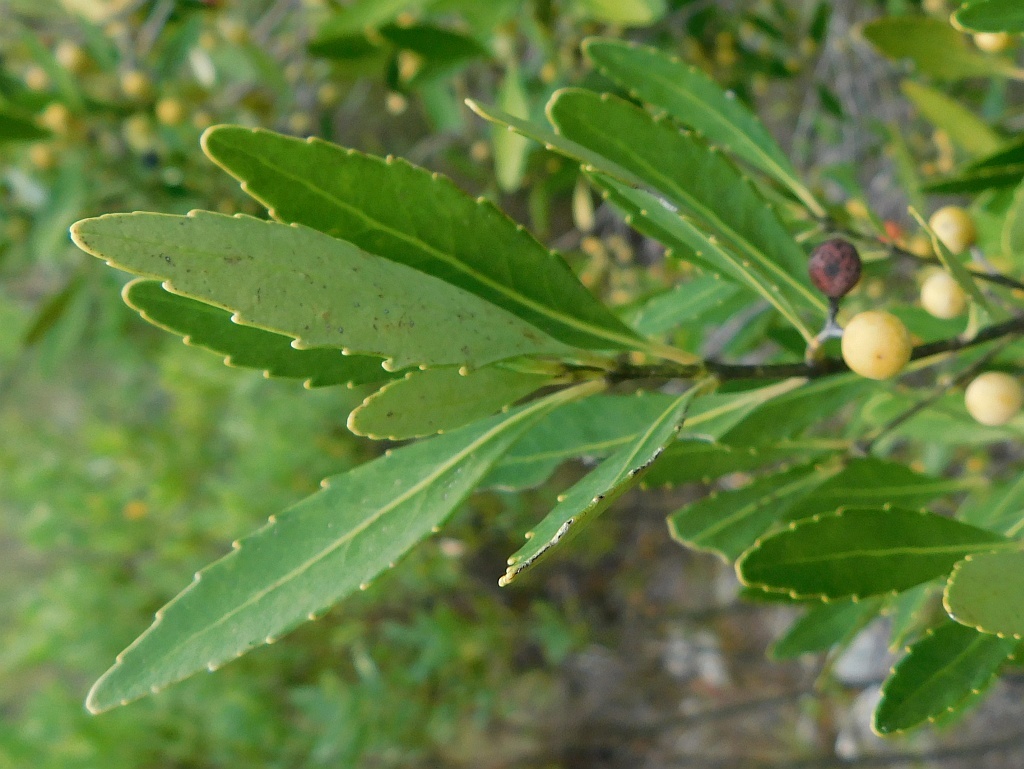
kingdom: Plantae
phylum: Tracheophyta
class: Magnoliopsida
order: Celastrales
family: Celastraceae
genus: Elaeodendron
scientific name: Elaeodendron schinoides
